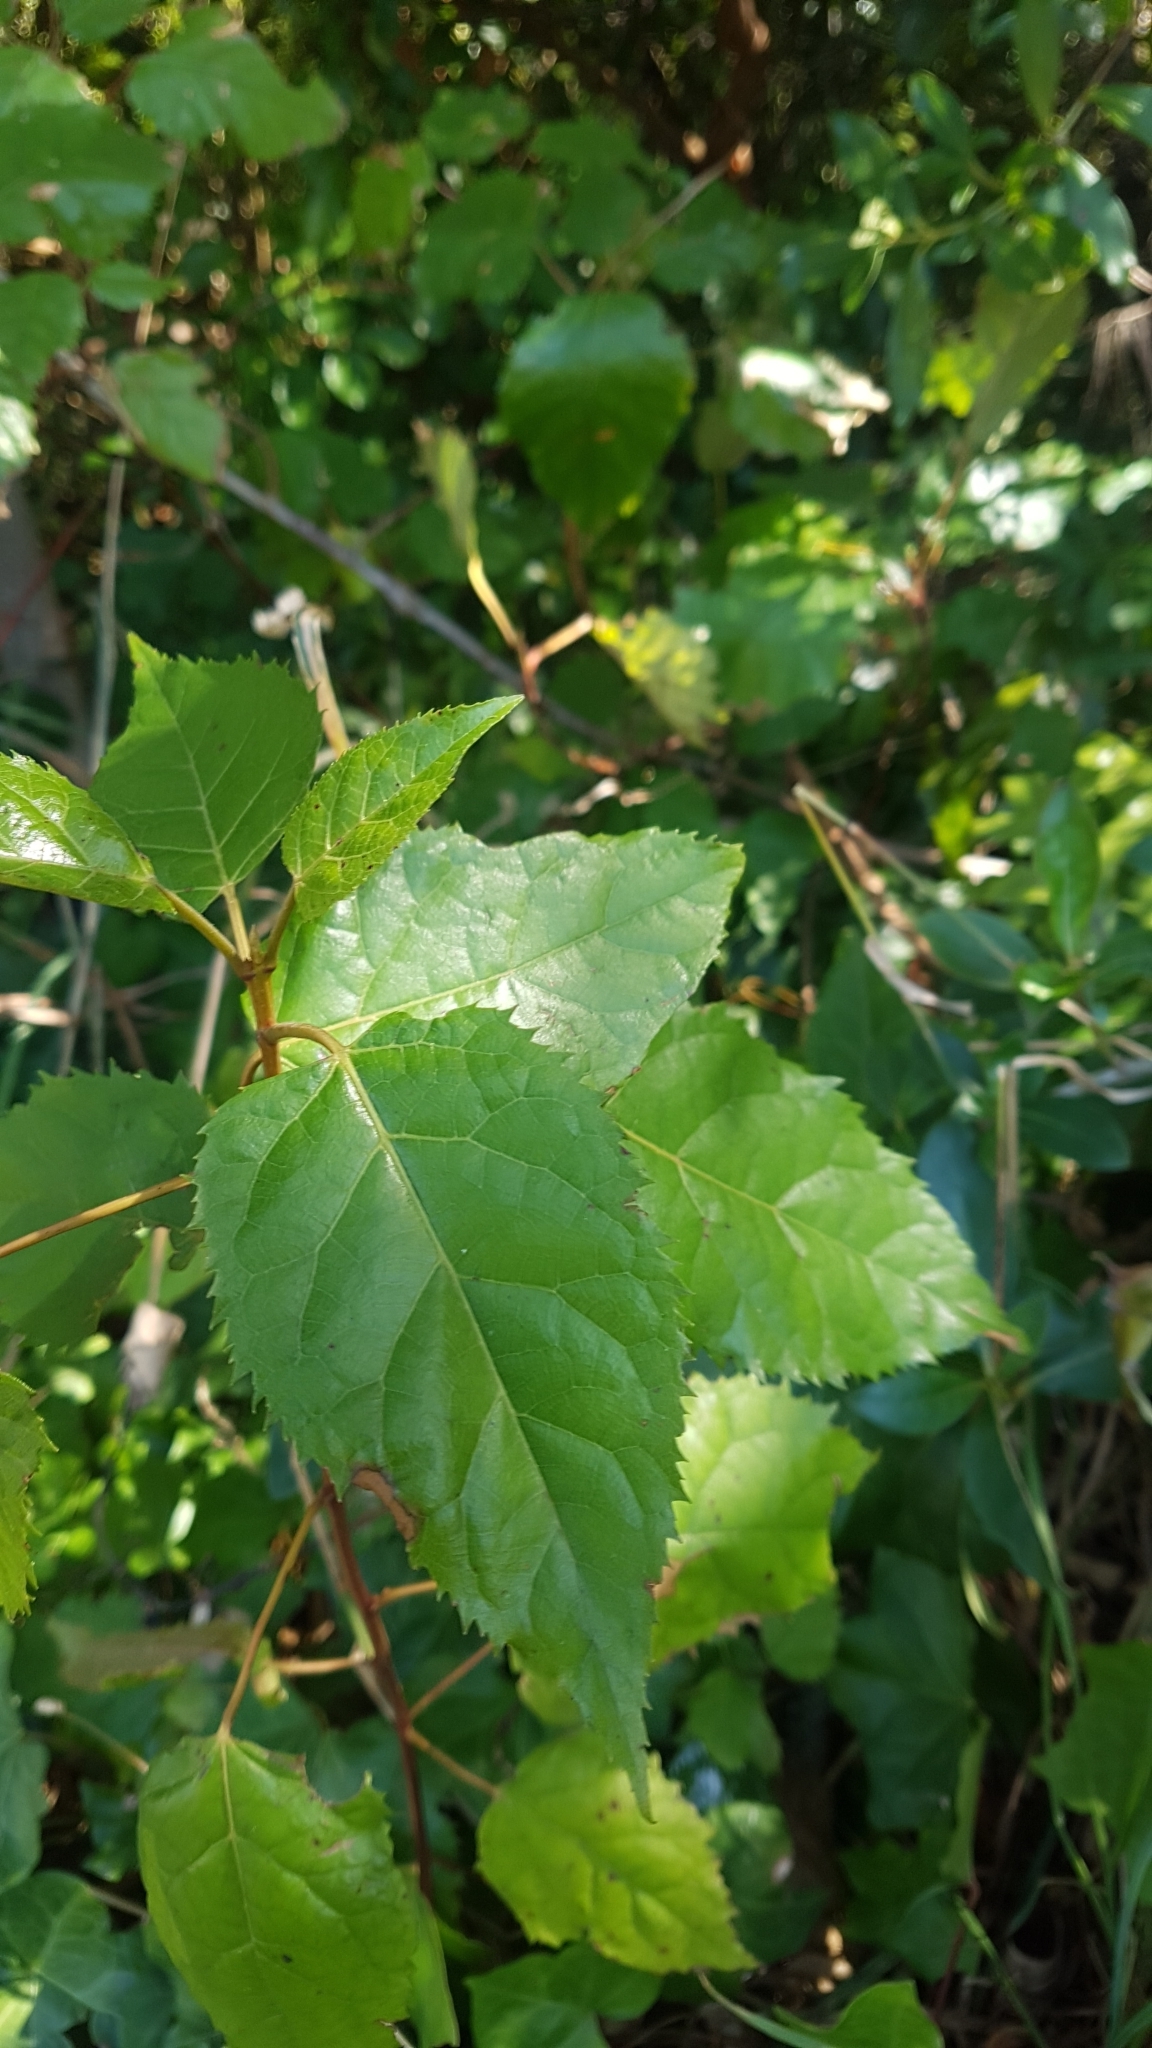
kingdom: Plantae
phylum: Tracheophyta
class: Magnoliopsida
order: Oxalidales
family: Elaeocarpaceae
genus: Aristotelia
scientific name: Aristotelia serrata
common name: New zealand wineberry
